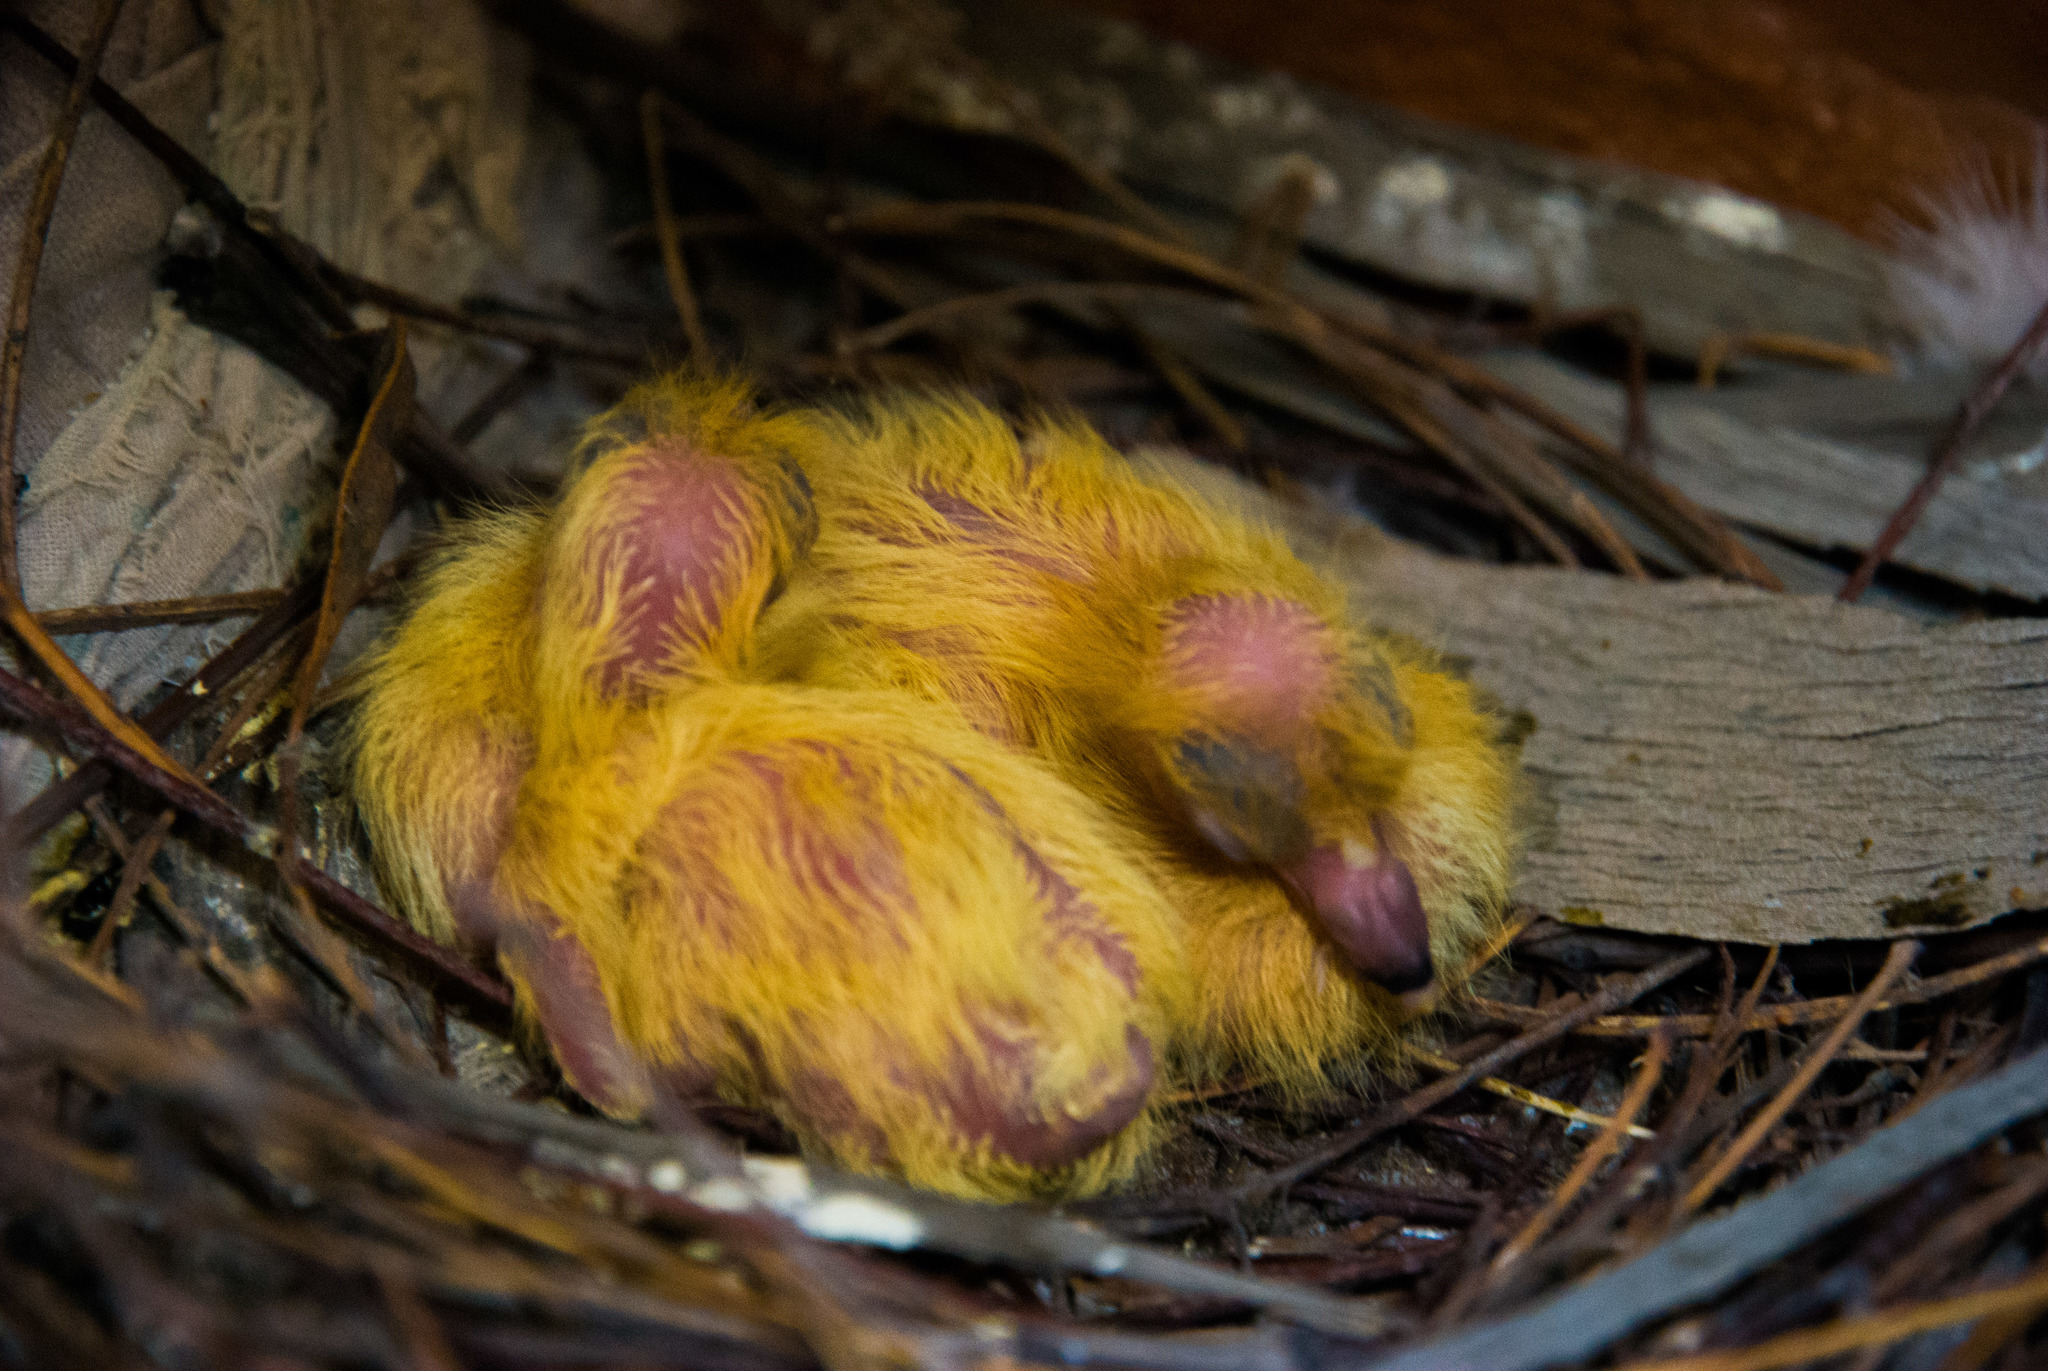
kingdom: Animalia
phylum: Chordata
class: Aves
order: Columbiformes
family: Columbidae
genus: Columba
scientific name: Columba livia
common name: Rock pigeon
